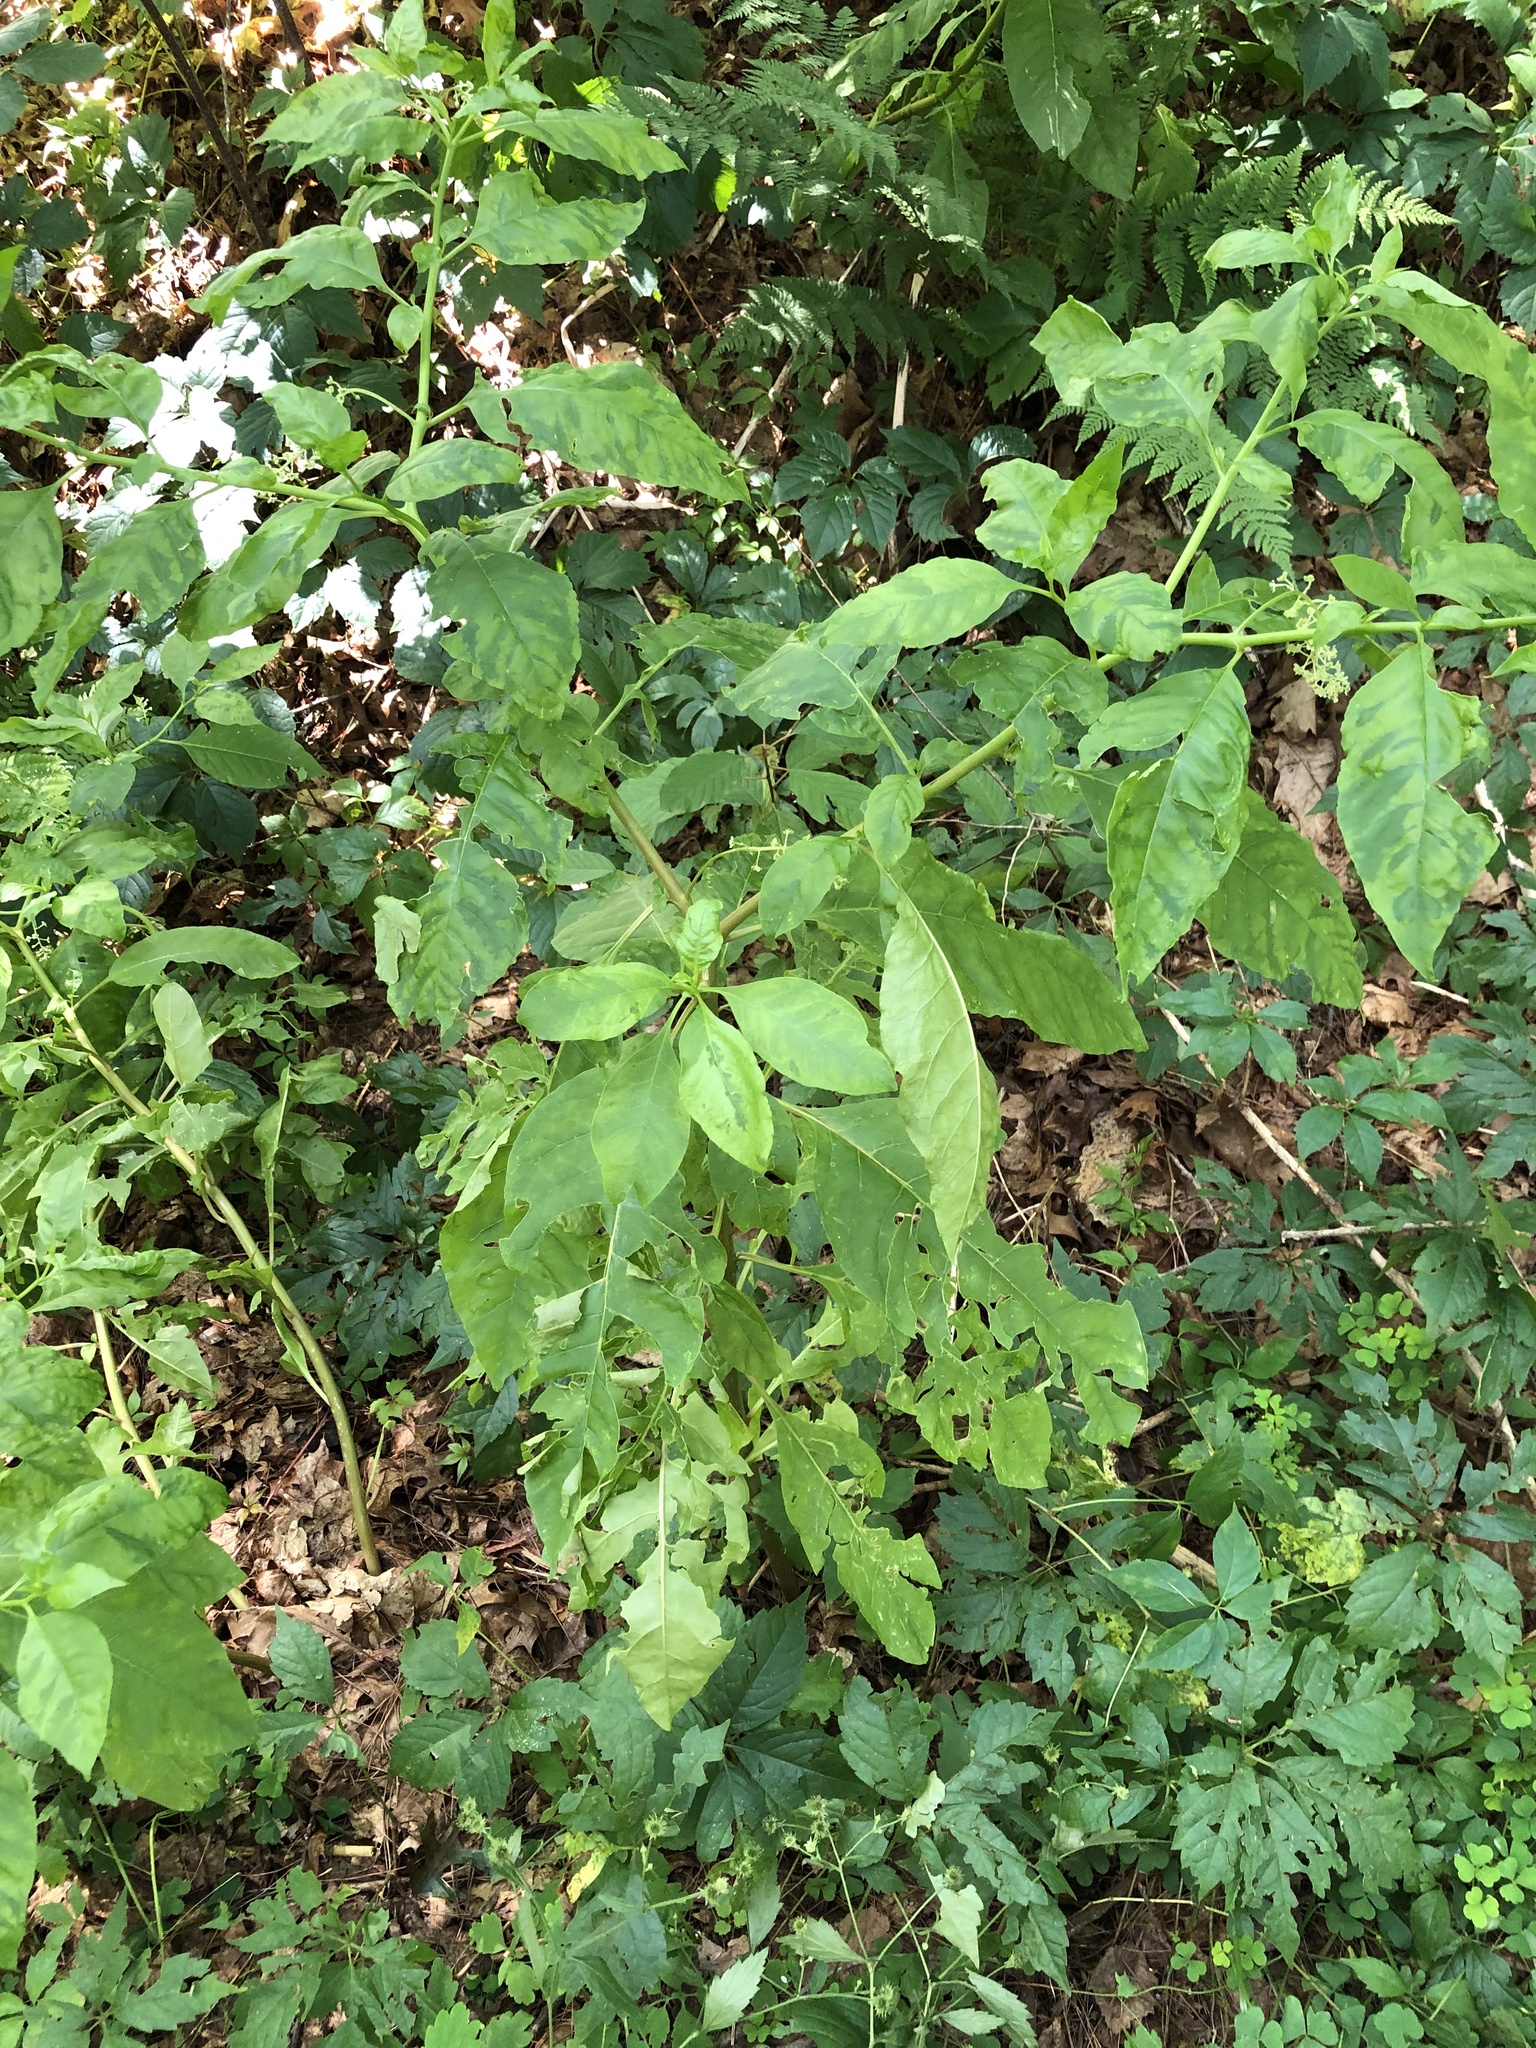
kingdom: Viruses
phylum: Pisuviricota
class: Stelpaviricetes
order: Patatavirales
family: Potyviridae
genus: Potyvirus
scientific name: Potyvirus Pokeweed mosaic virus
